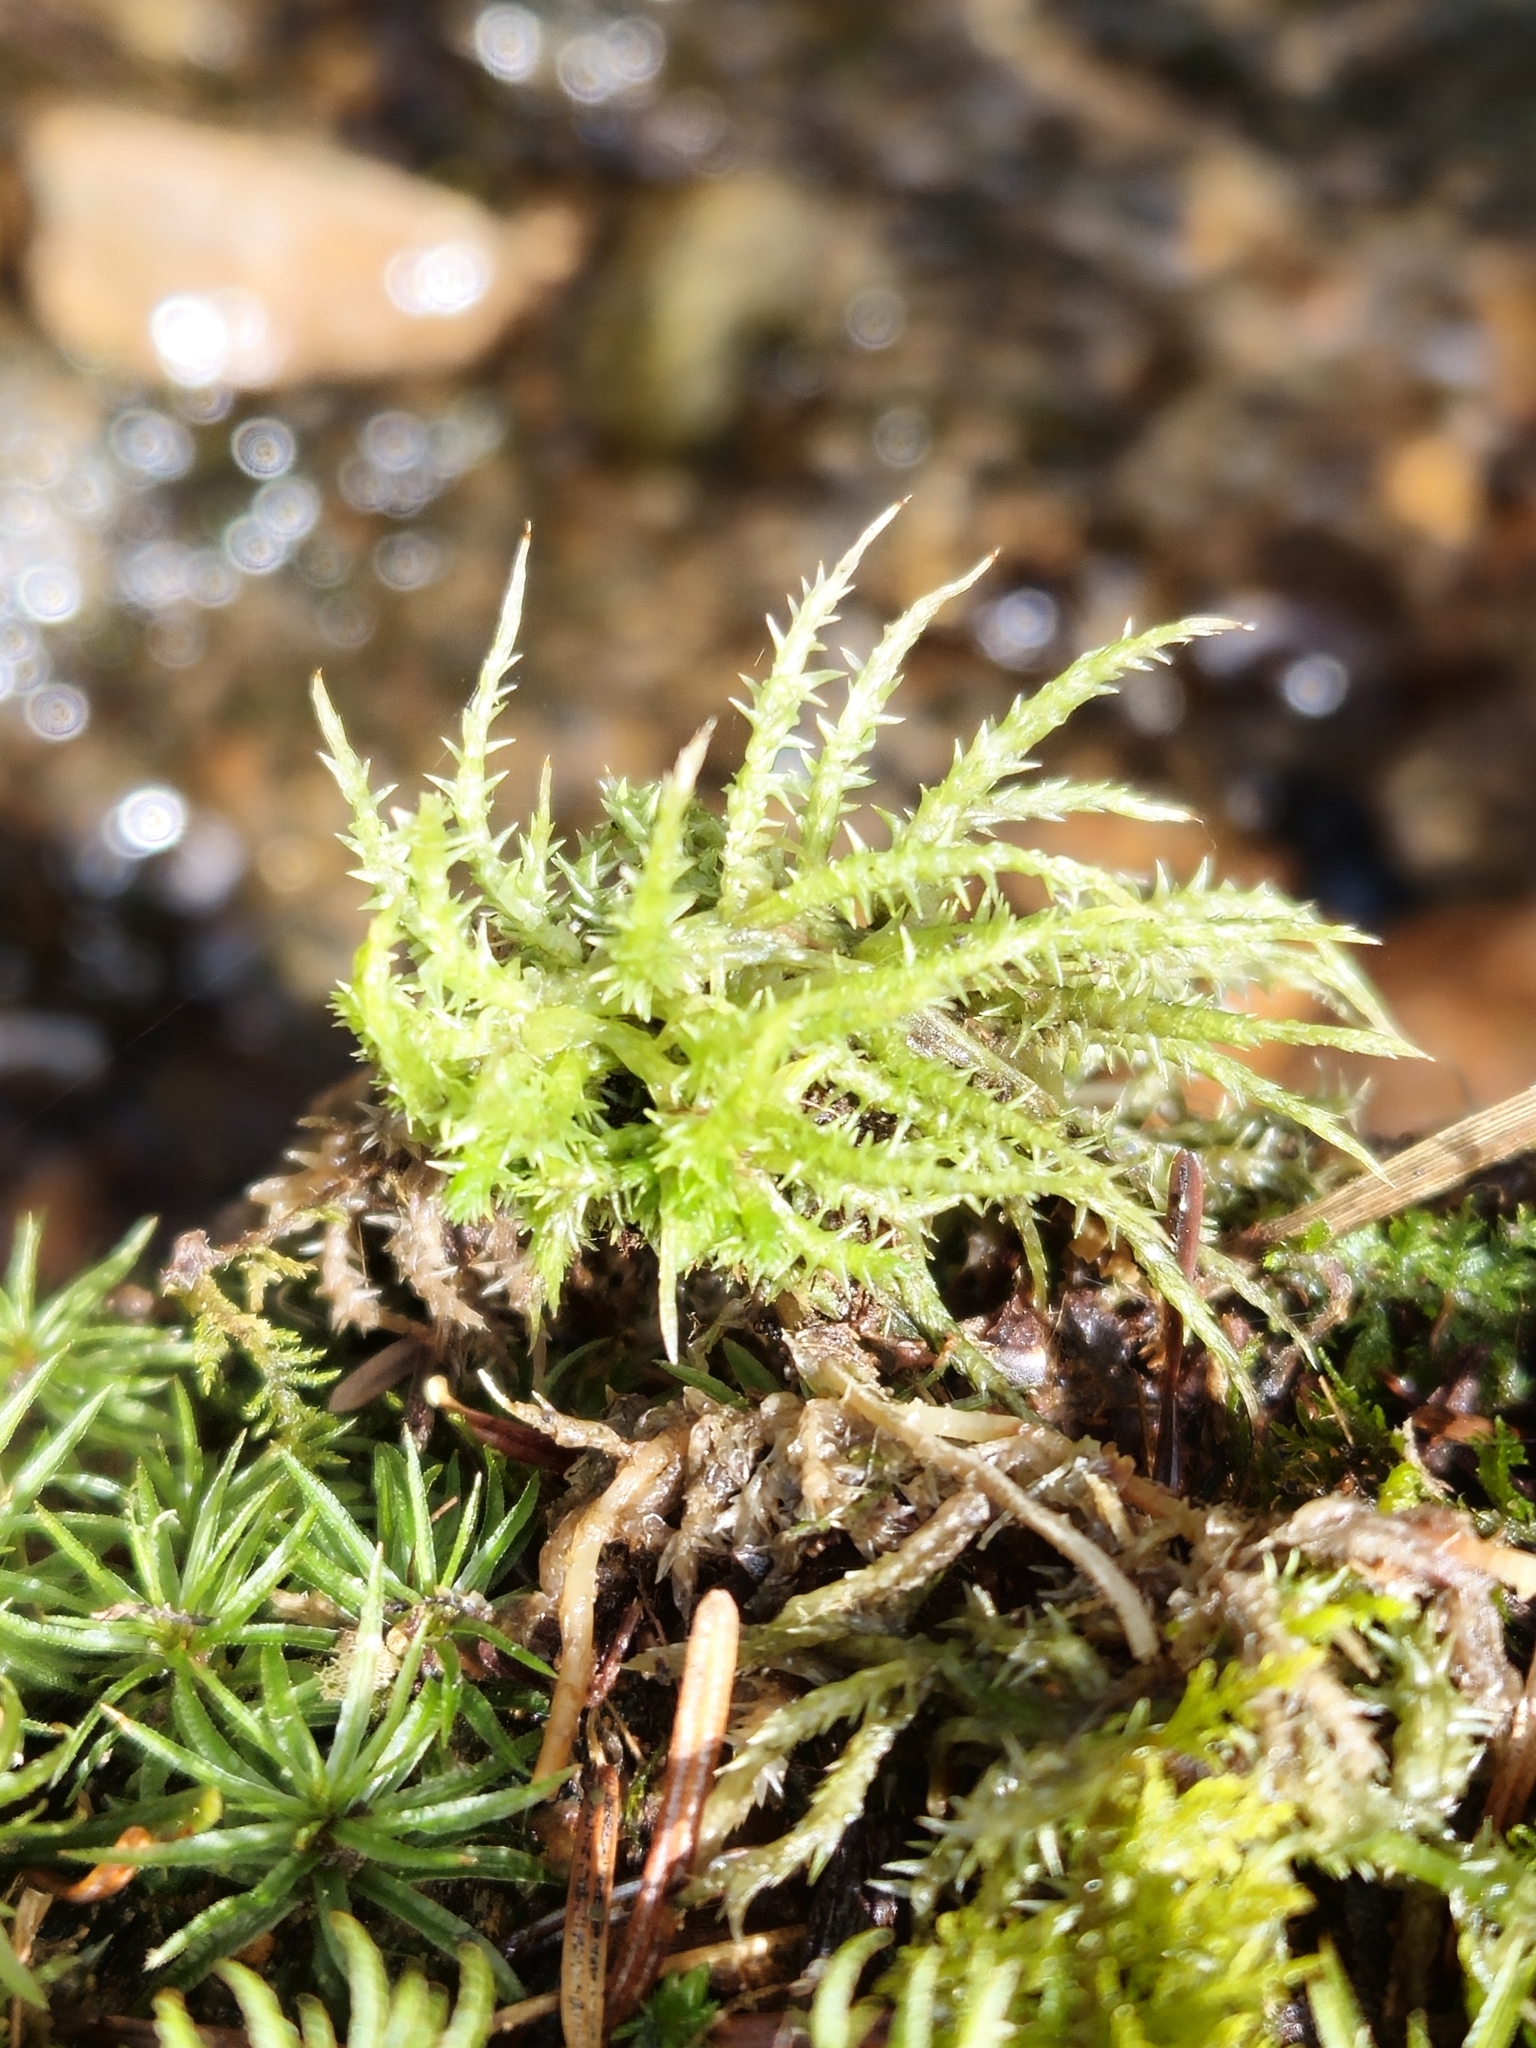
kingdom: Plantae
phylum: Bryophyta
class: Sphagnopsida
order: Sphagnales
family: Sphagnaceae
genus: Sphagnum
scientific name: Sphagnum squarrosum
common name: Shaggy peat moss
